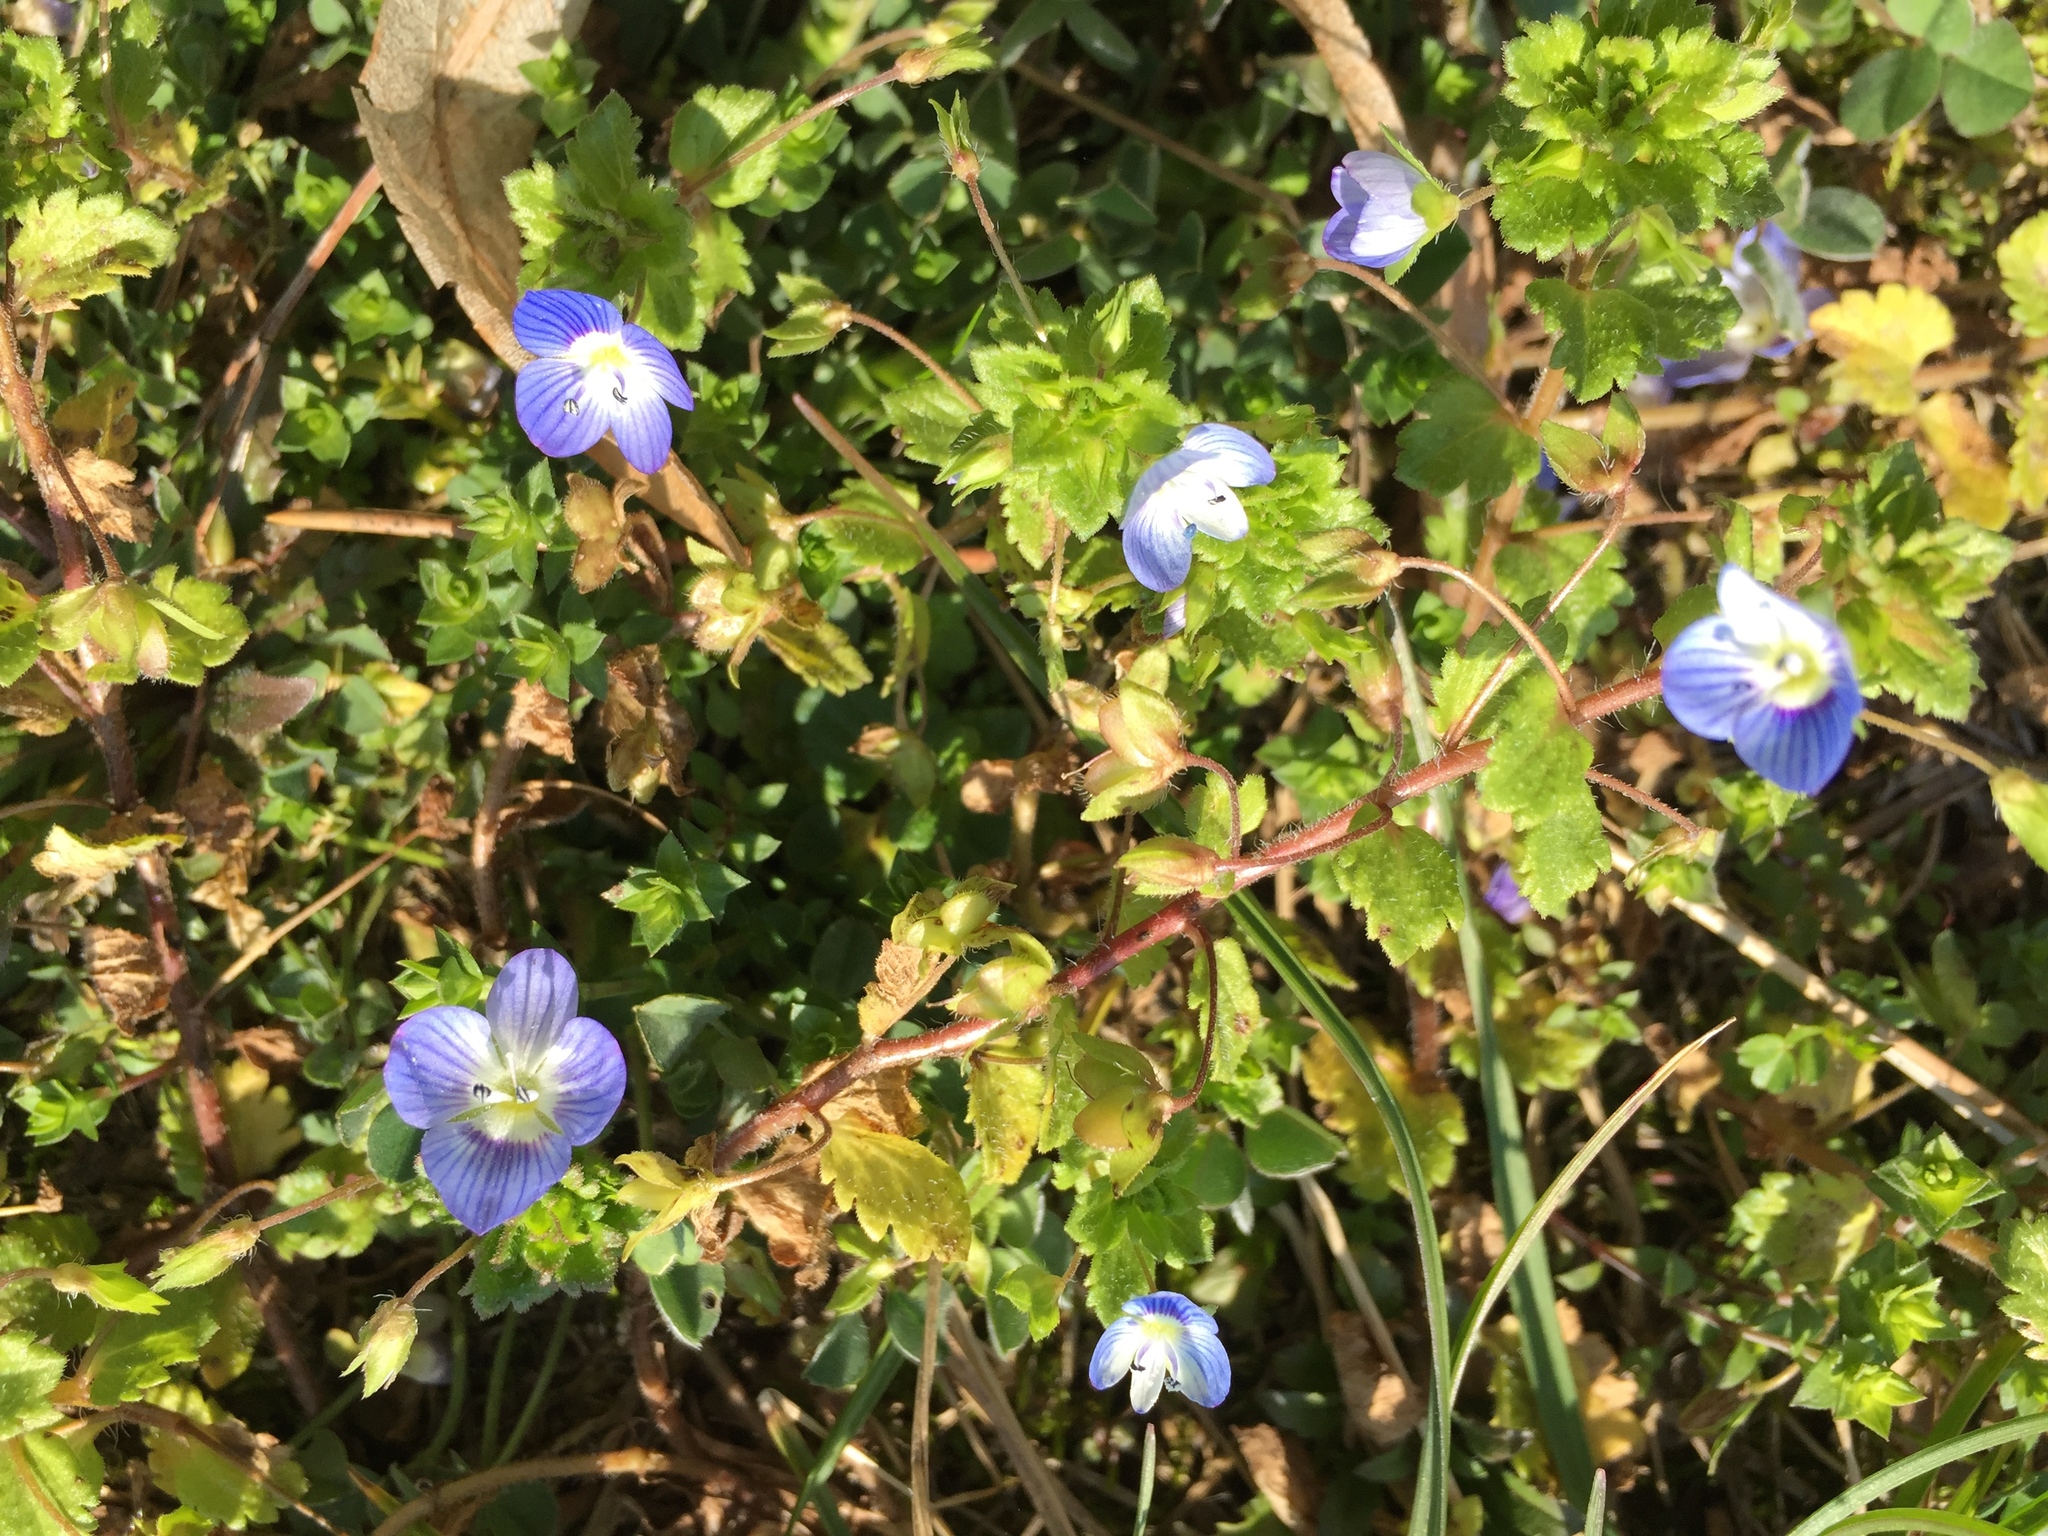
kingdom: Plantae
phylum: Tracheophyta
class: Magnoliopsida
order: Lamiales
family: Plantaginaceae
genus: Veronica
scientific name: Veronica persica
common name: Common field-speedwell
